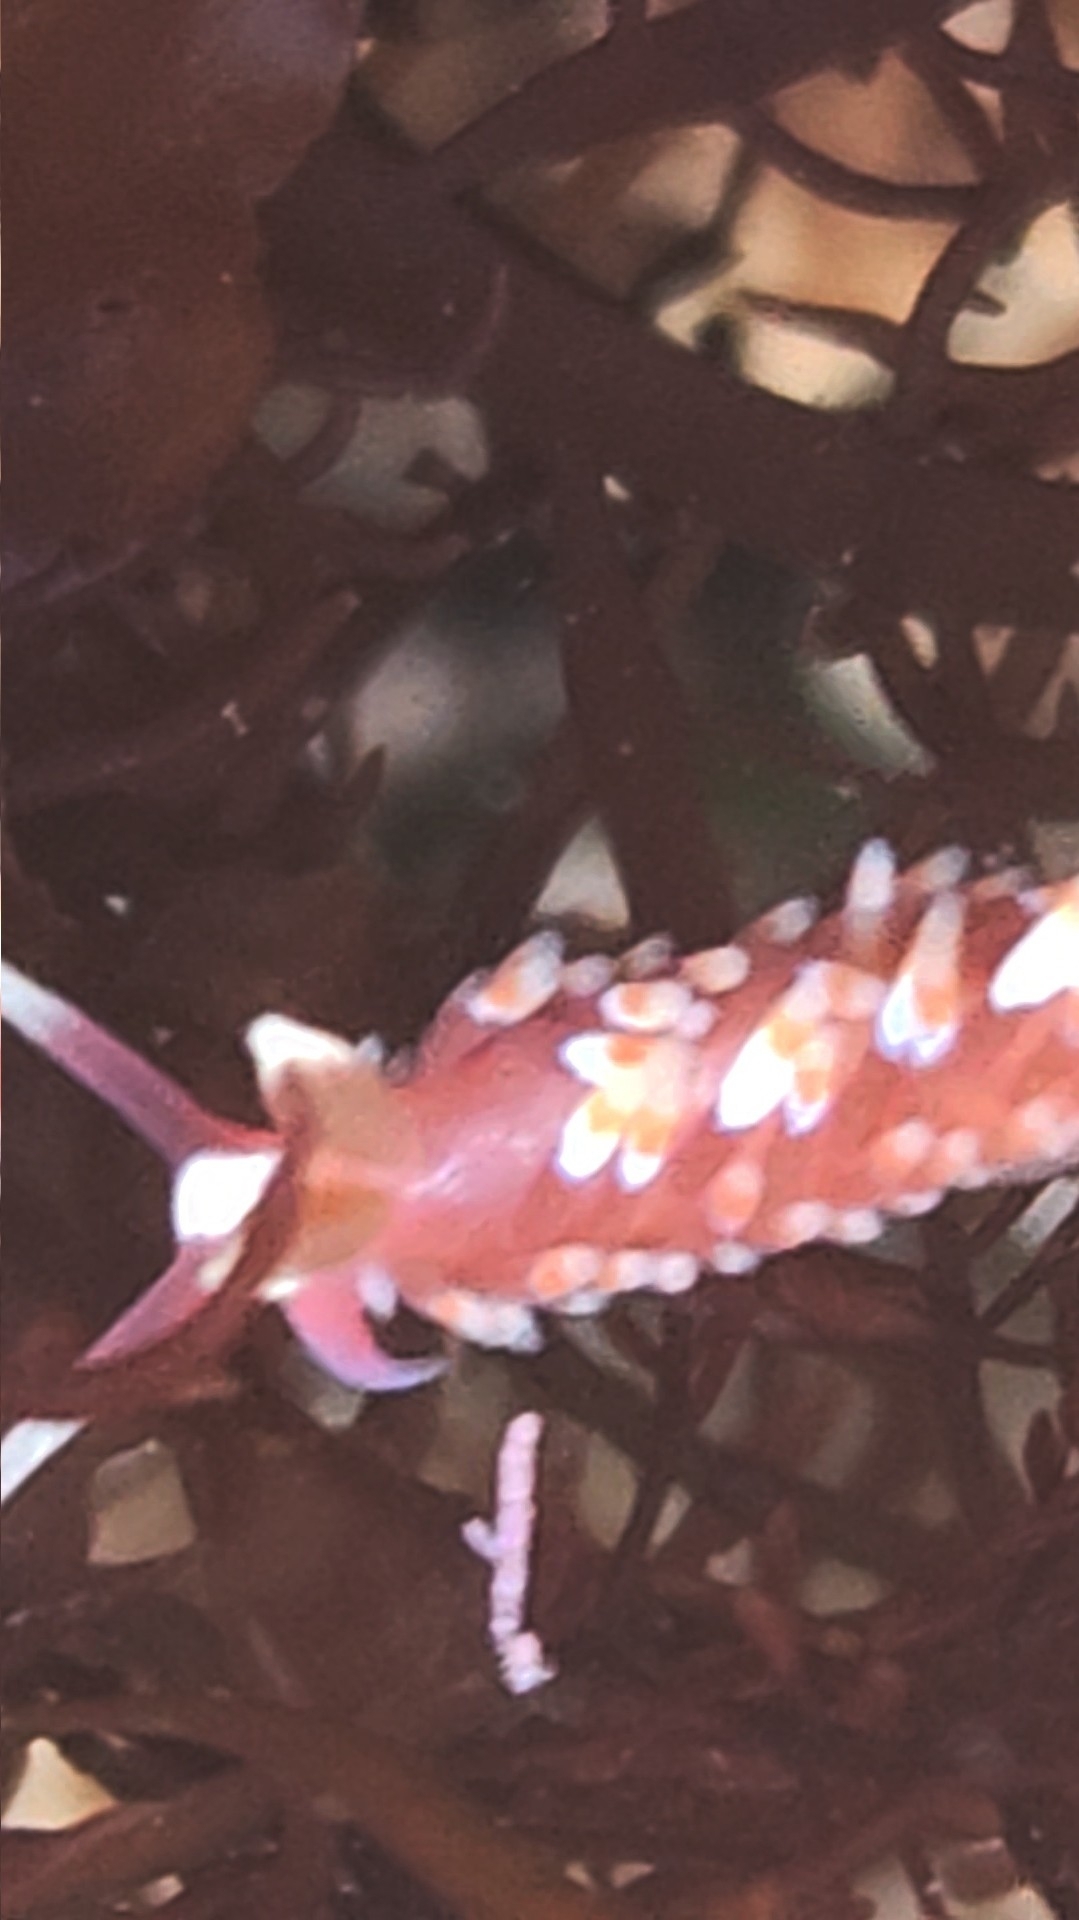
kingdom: Animalia
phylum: Mollusca
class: Gastropoda
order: Nudibranchia
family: Babakinidae
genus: Babakina
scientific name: Babakina festiva
